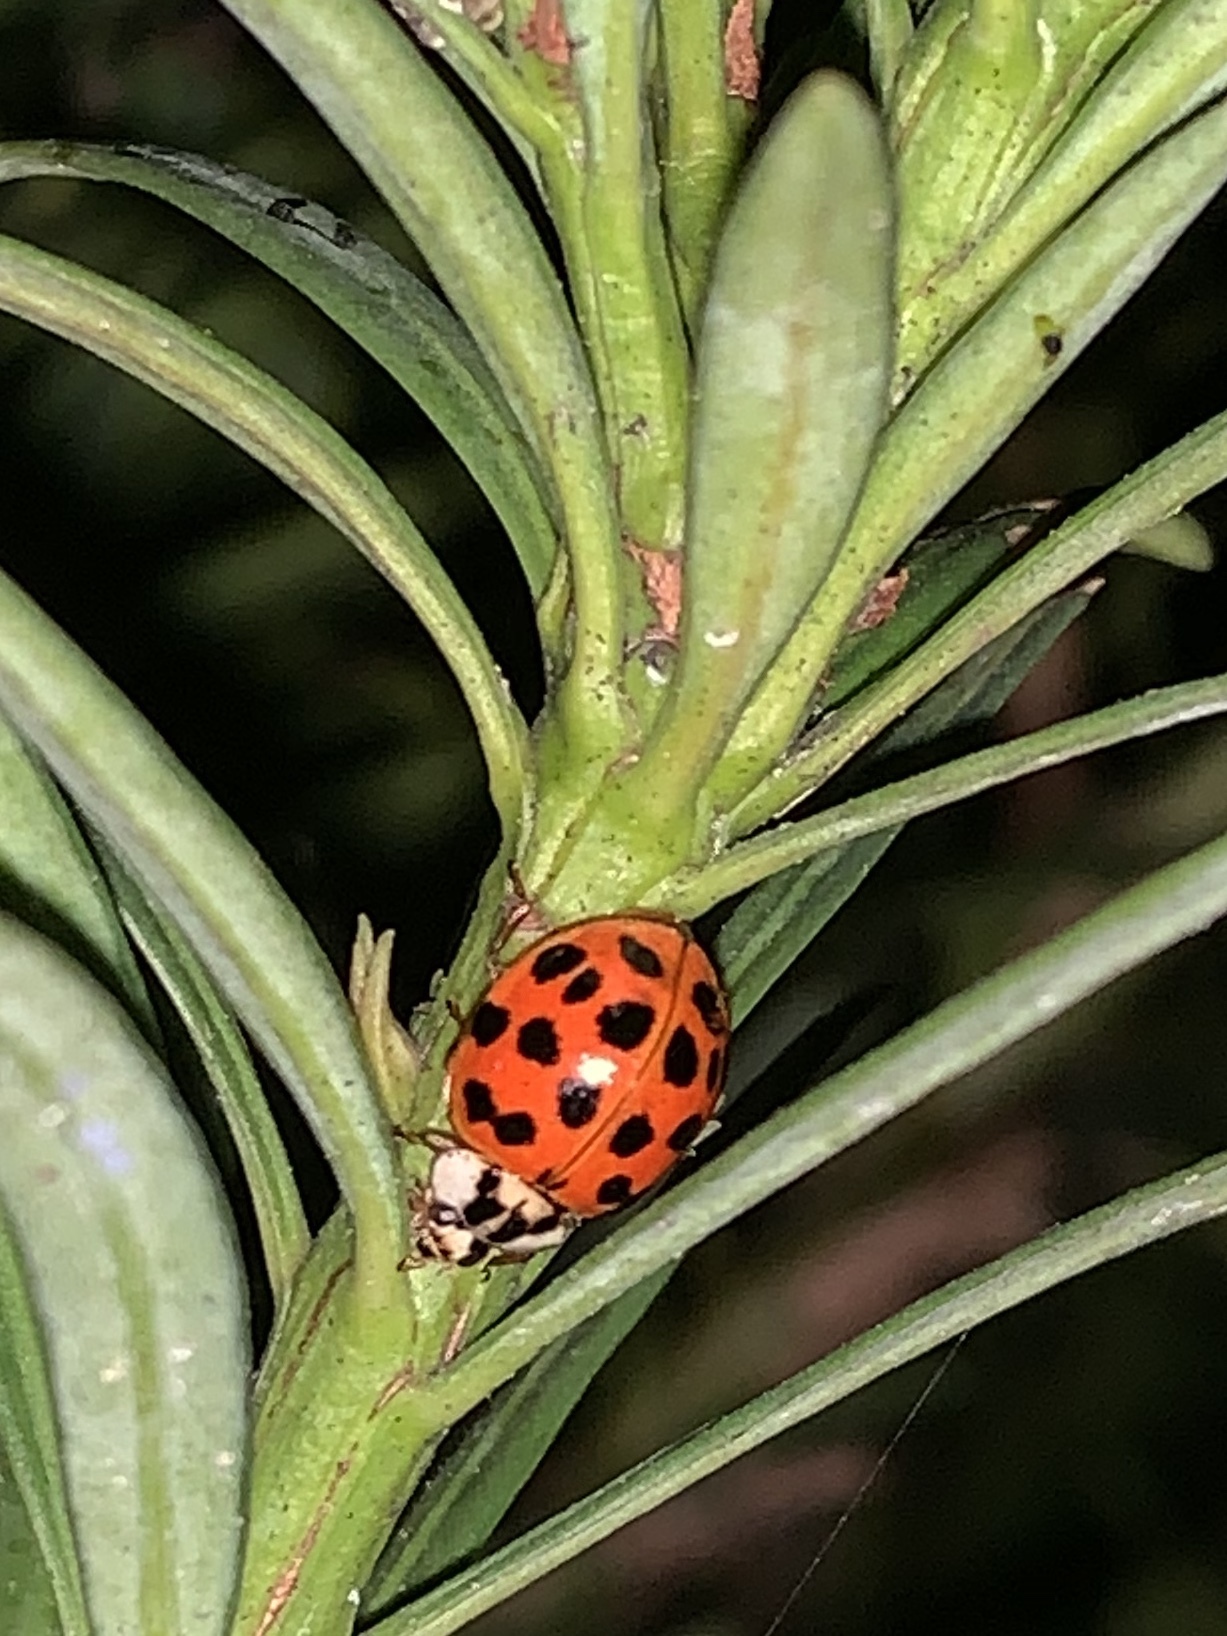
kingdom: Animalia
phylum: Arthropoda
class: Insecta
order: Coleoptera
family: Coccinellidae
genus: Harmonia
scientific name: Harmonia axyridis
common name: Harlequin ladybird
